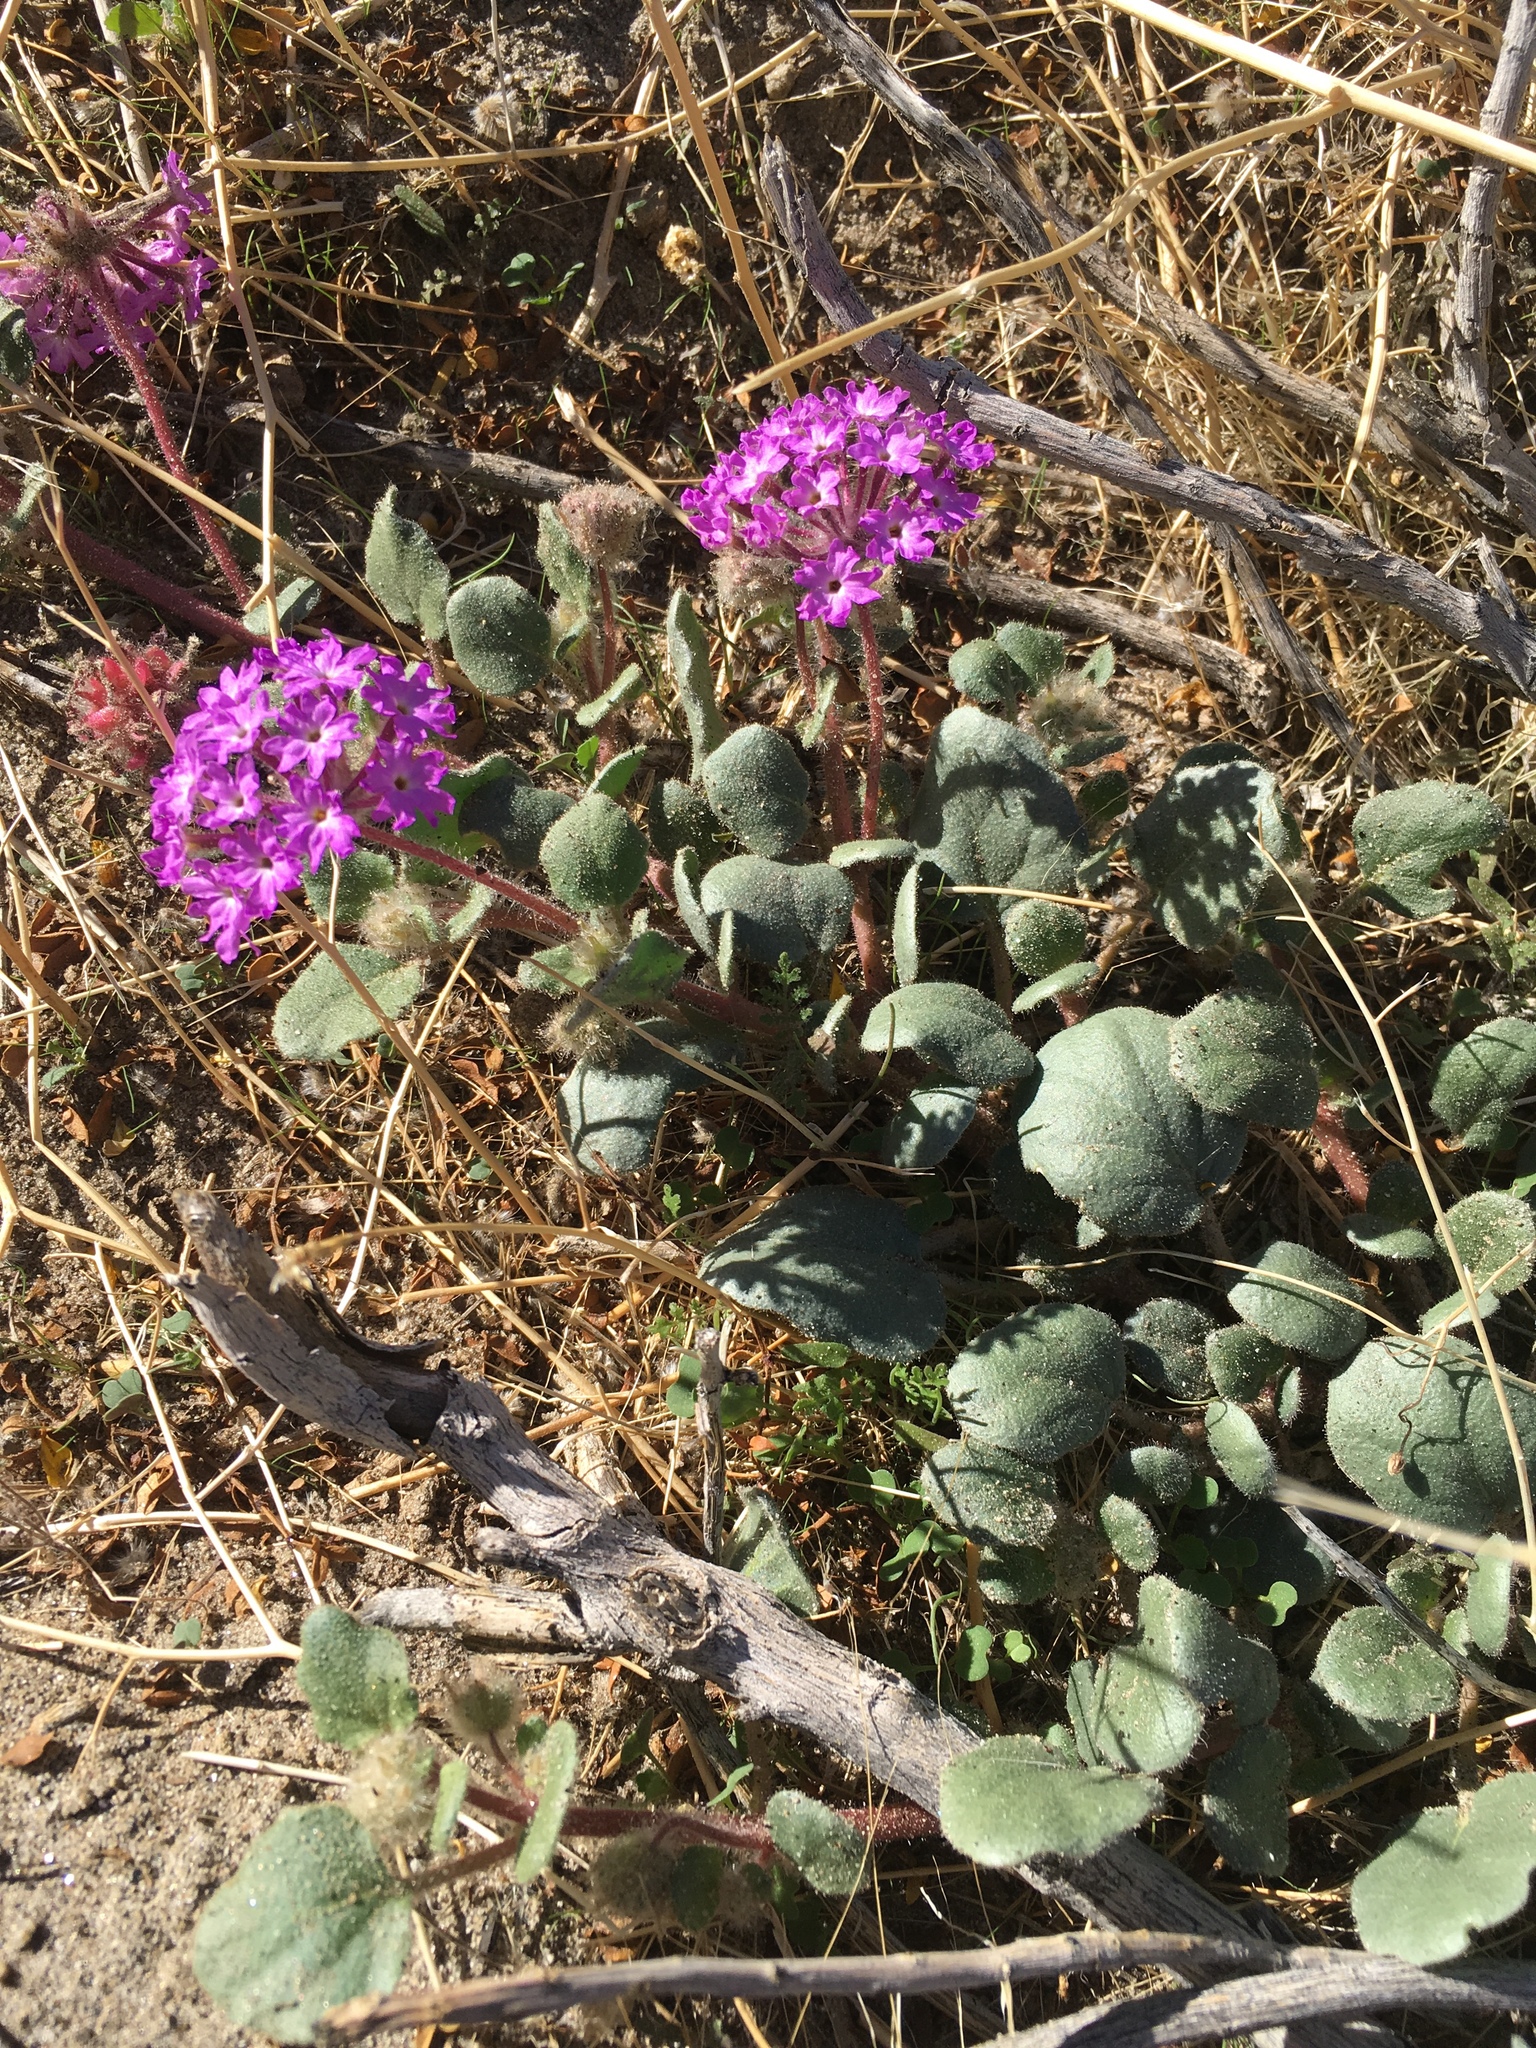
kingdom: Plantae
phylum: Tracheophyta
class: Magnoliopsida
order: Caryophyllales
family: Nyctaginaceae
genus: Abronia
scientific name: Abronia villosa
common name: Desert sand-verbena
